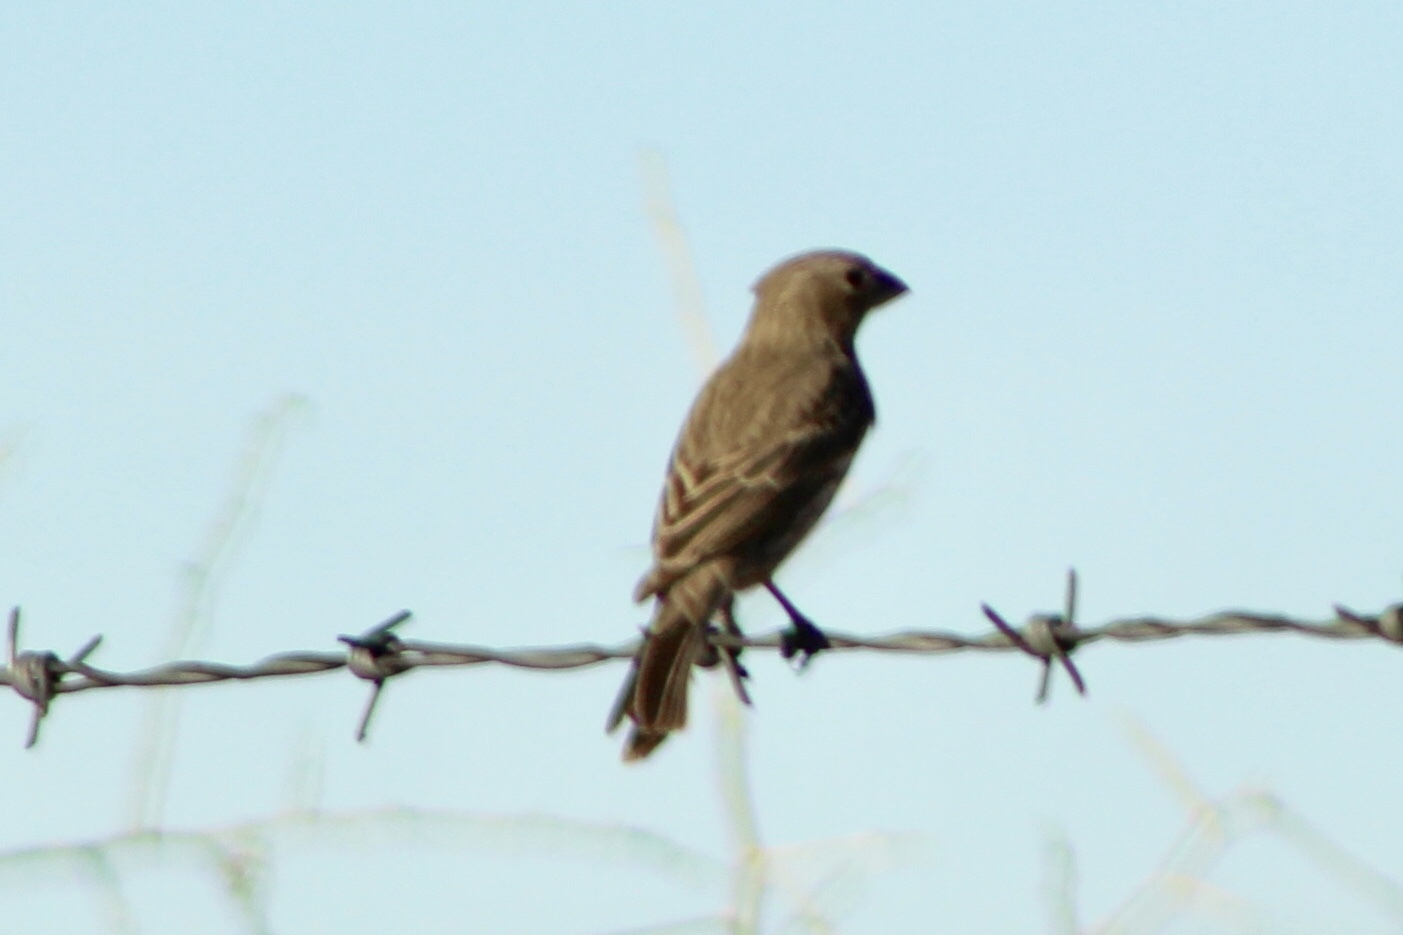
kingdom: Animalia
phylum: Chordata
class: Aves
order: Passeriformes
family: Fringillidae
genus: Haemorhous
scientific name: Haemorhous mexicanus
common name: House finch
